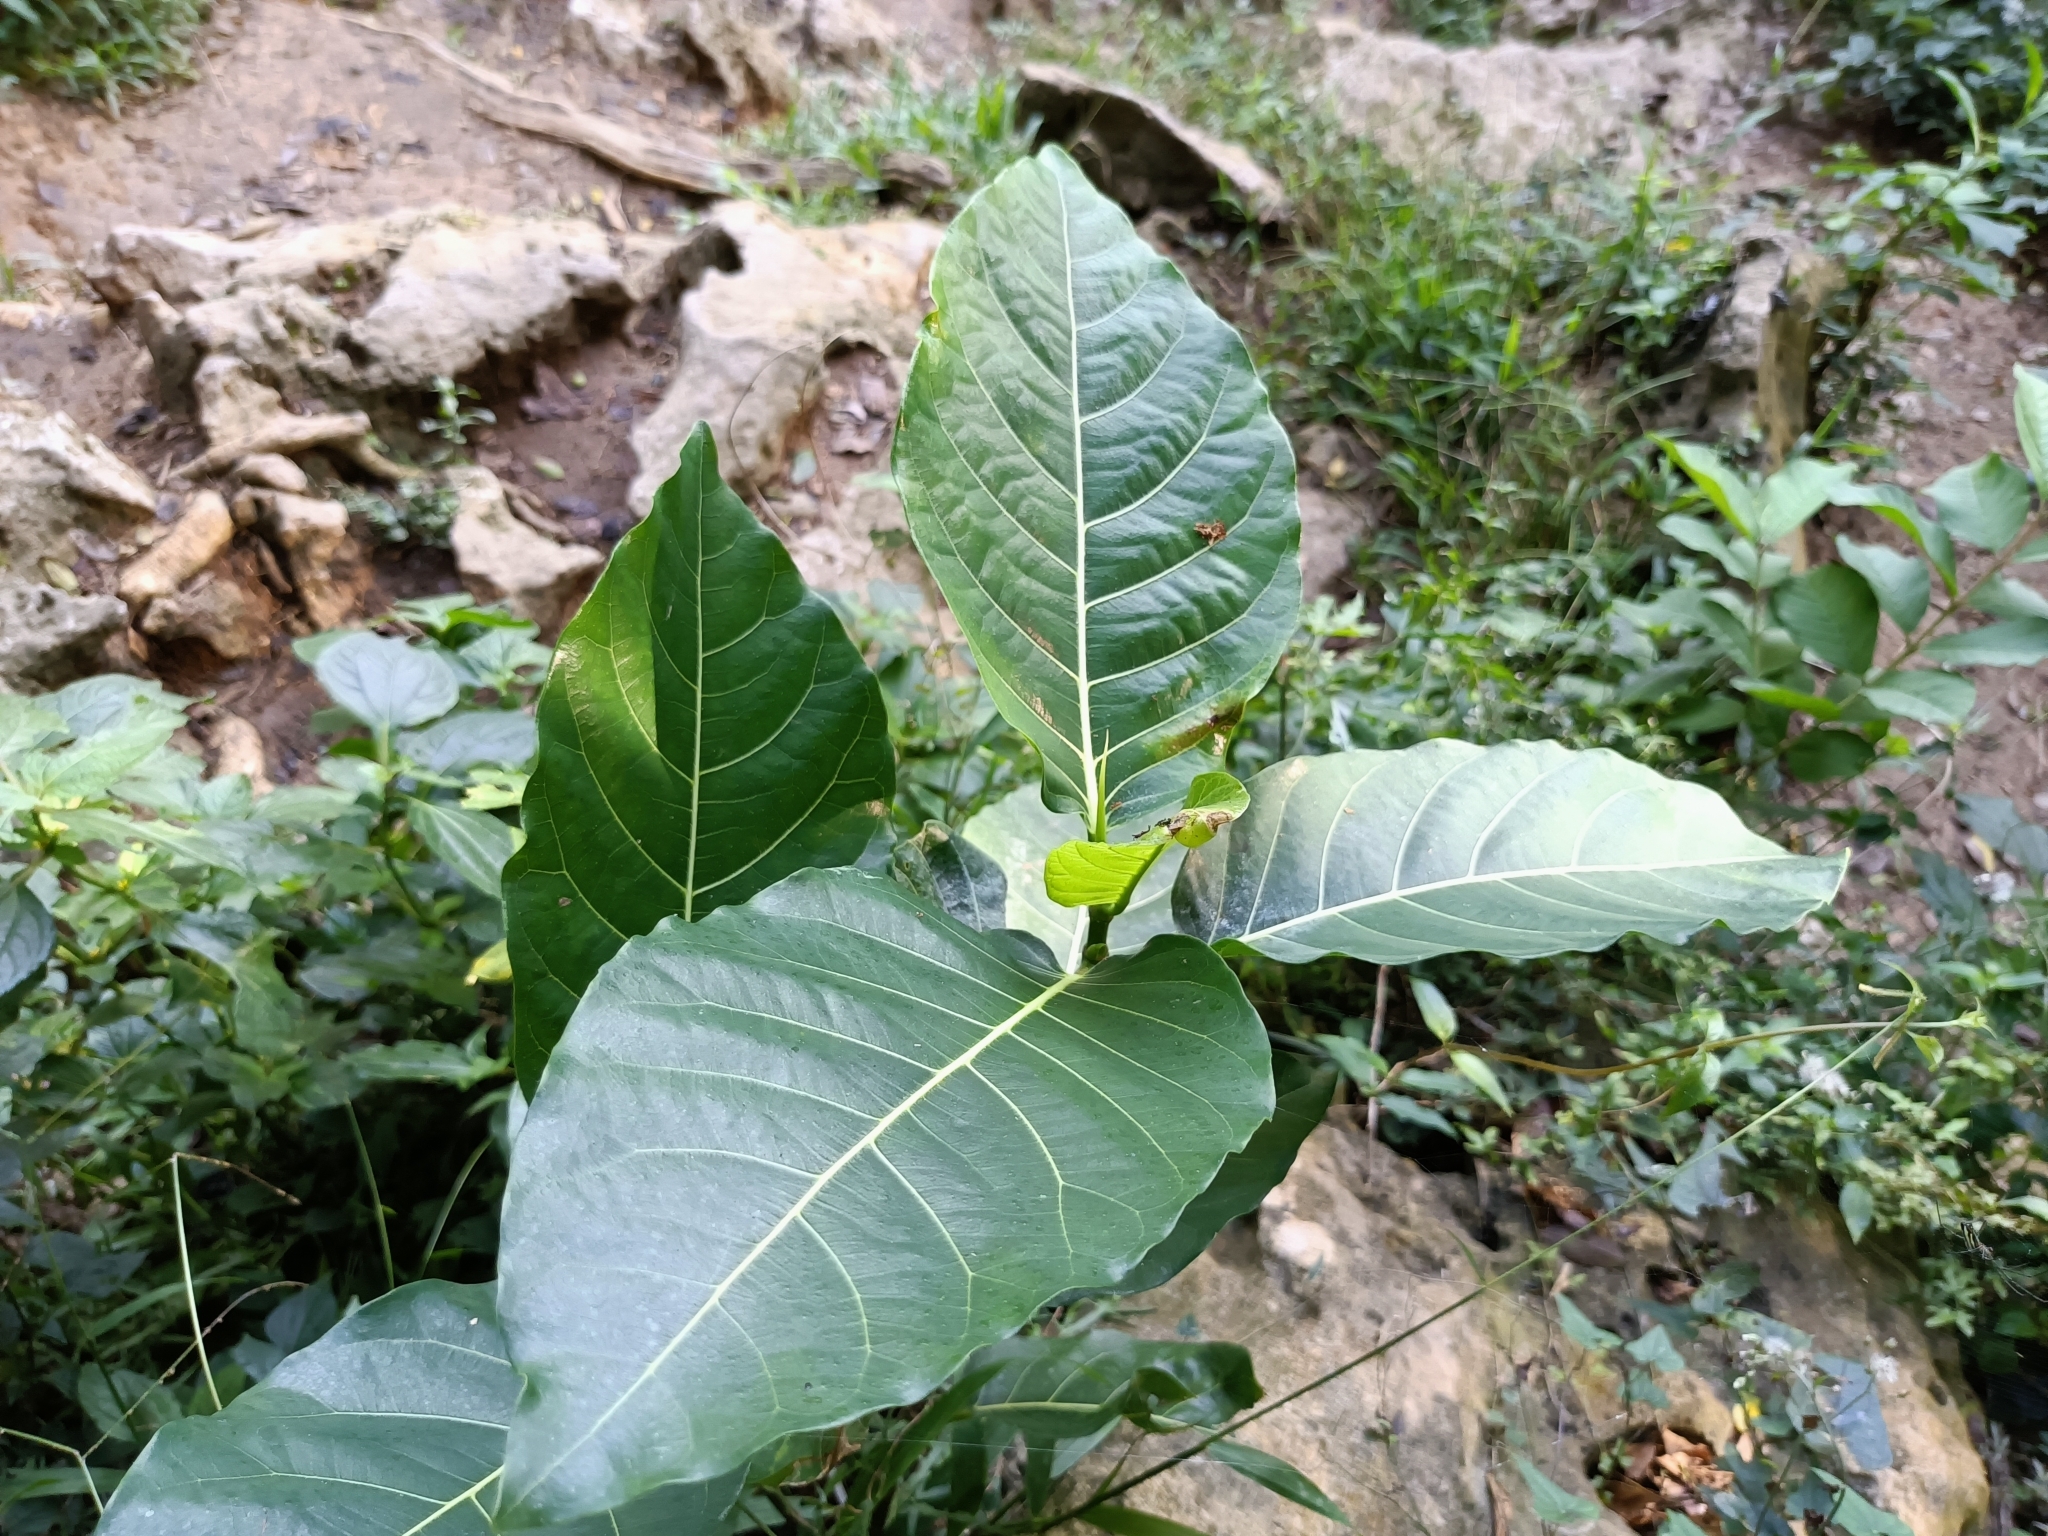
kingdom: Plantae
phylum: Tracheophyta
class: Magnoliopsida
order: Rosales
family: Moraceae
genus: Ficus
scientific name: Ficus septica
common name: Septic fig
